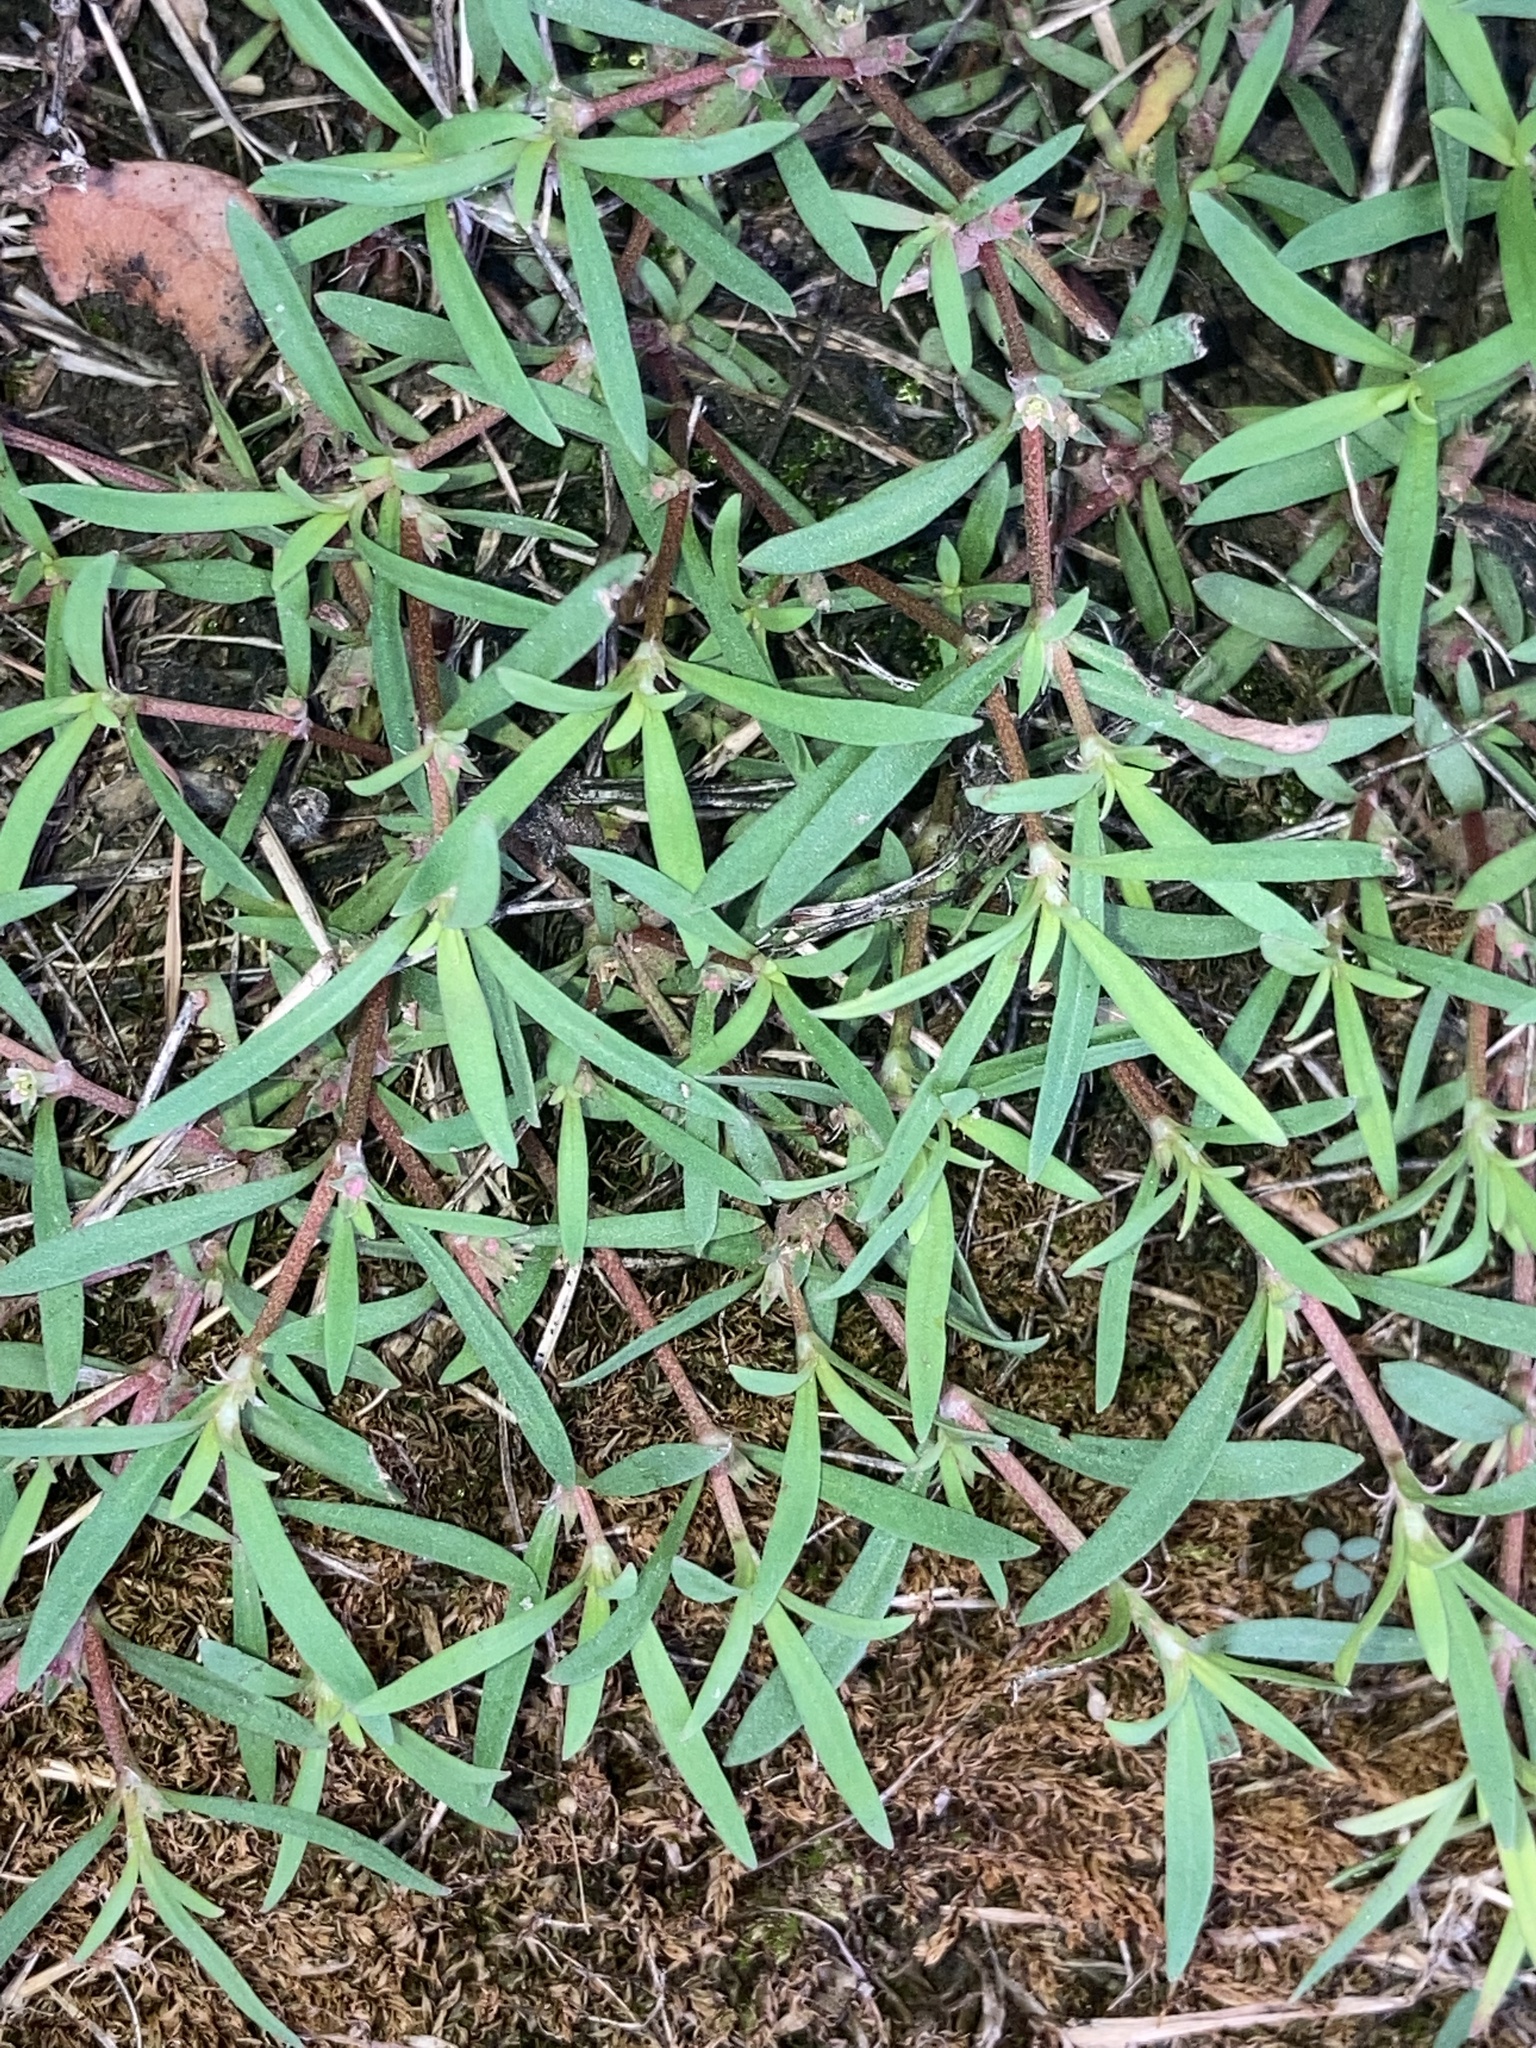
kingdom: Plantae
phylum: Tracheophyta
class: Magnoliopsida
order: Gentianales
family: Rubiaceae
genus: Oldenlandia
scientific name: Oldenlandia boscii
